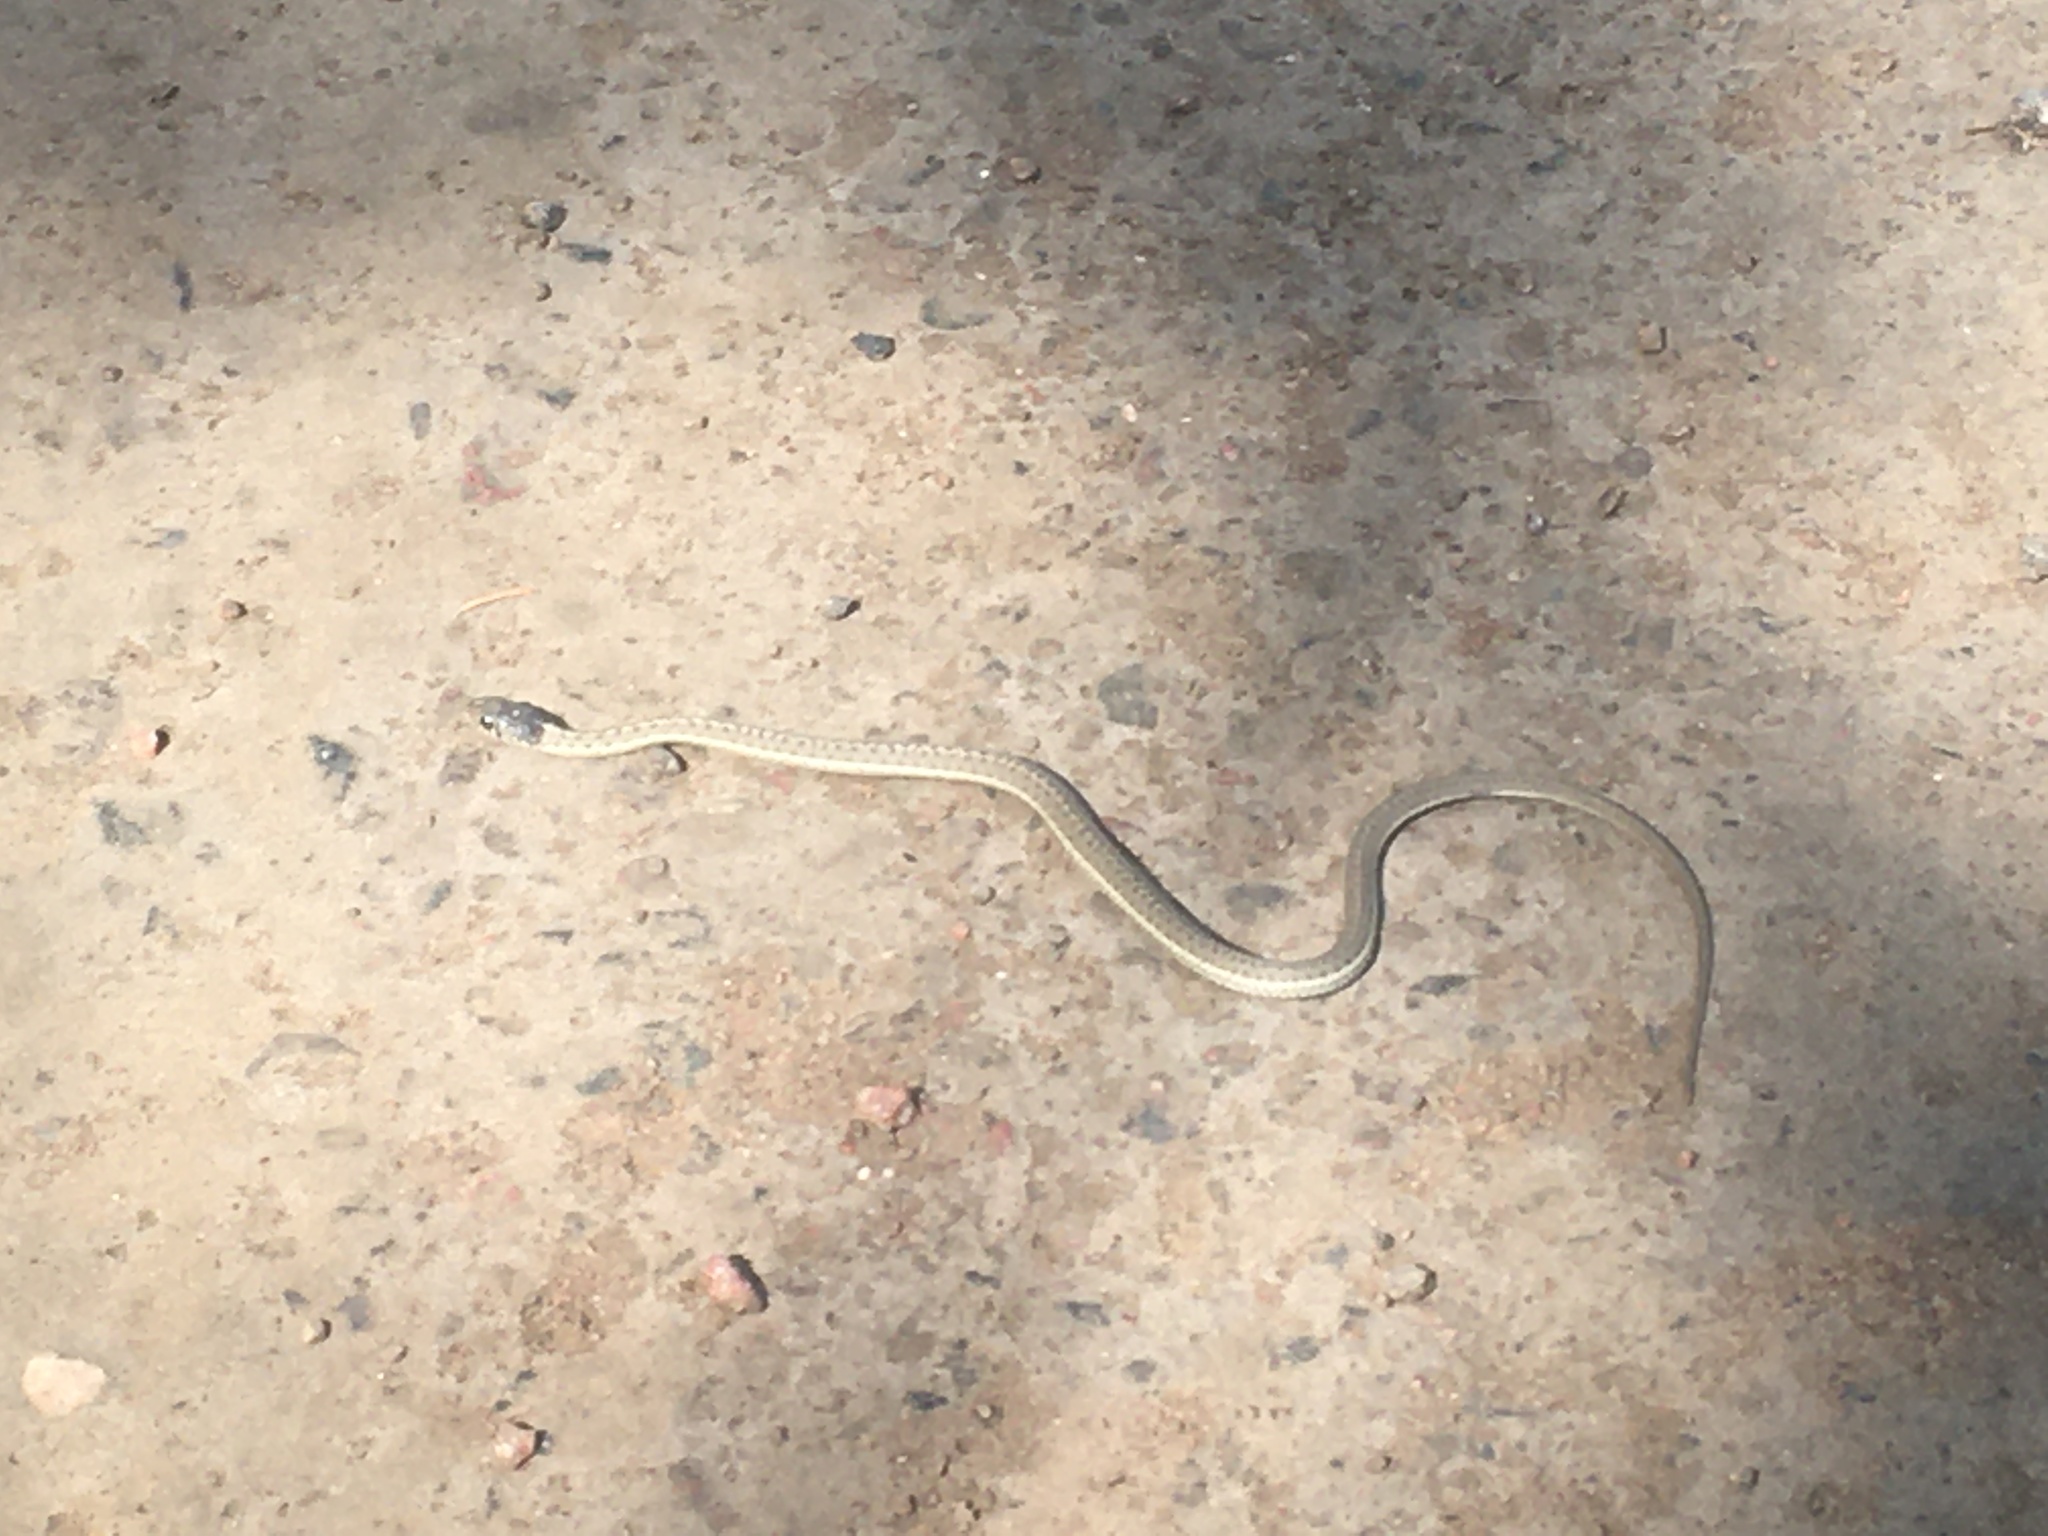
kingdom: Animalia
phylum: Chordata
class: Squamata
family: Colubridae
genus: Thamnophis
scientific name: Thamnophis elegans
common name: Western terrestrial garter snake
